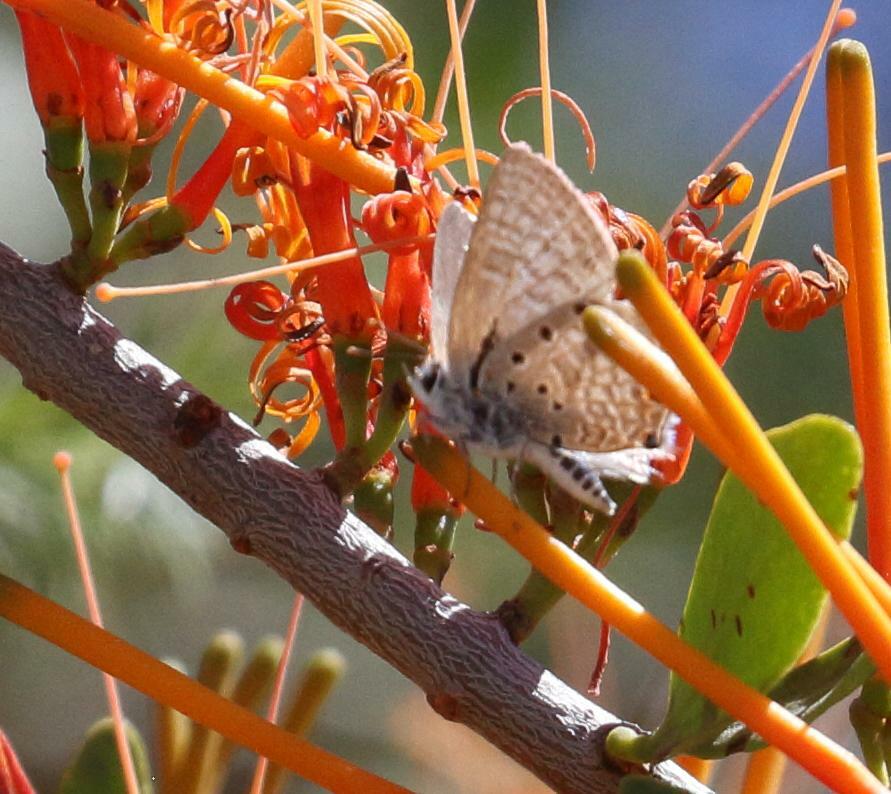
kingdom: Animalia
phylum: Arthropoda
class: Insecta
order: Lepidoptera
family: Lycaenidae
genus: Anthene
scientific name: Anthene amarah
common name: Black-striped hairtail
